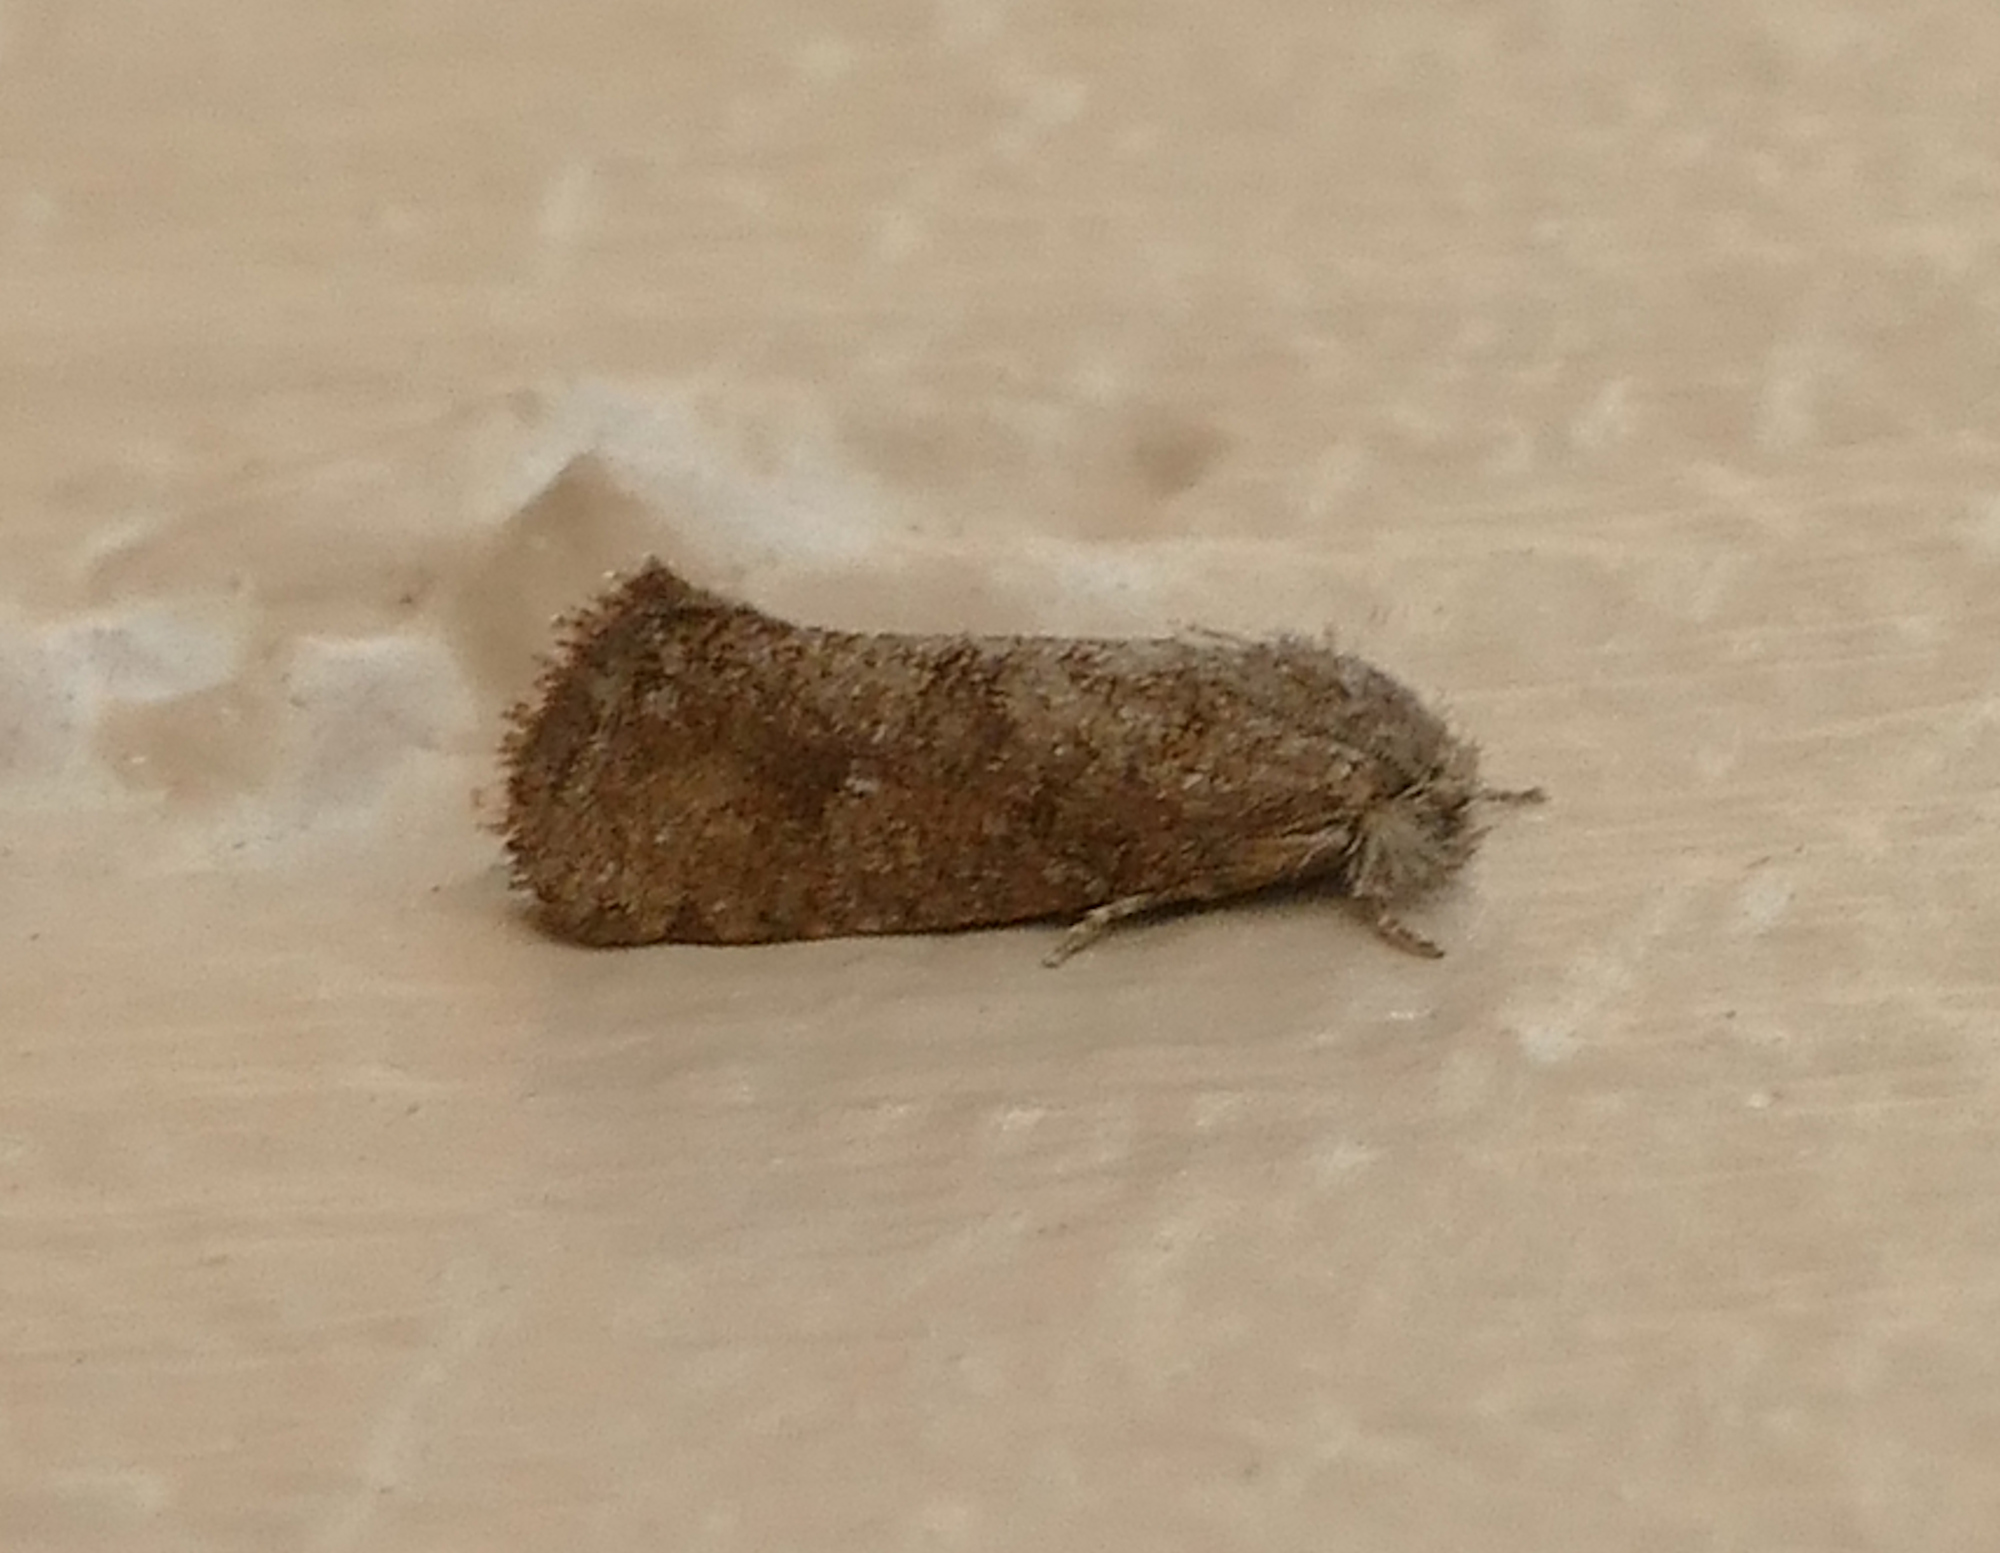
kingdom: Animalia
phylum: Arthropoda
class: Insecta
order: Lepidoptera
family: Tineidae
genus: Acrolophus
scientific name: Acrolophus heppneri
